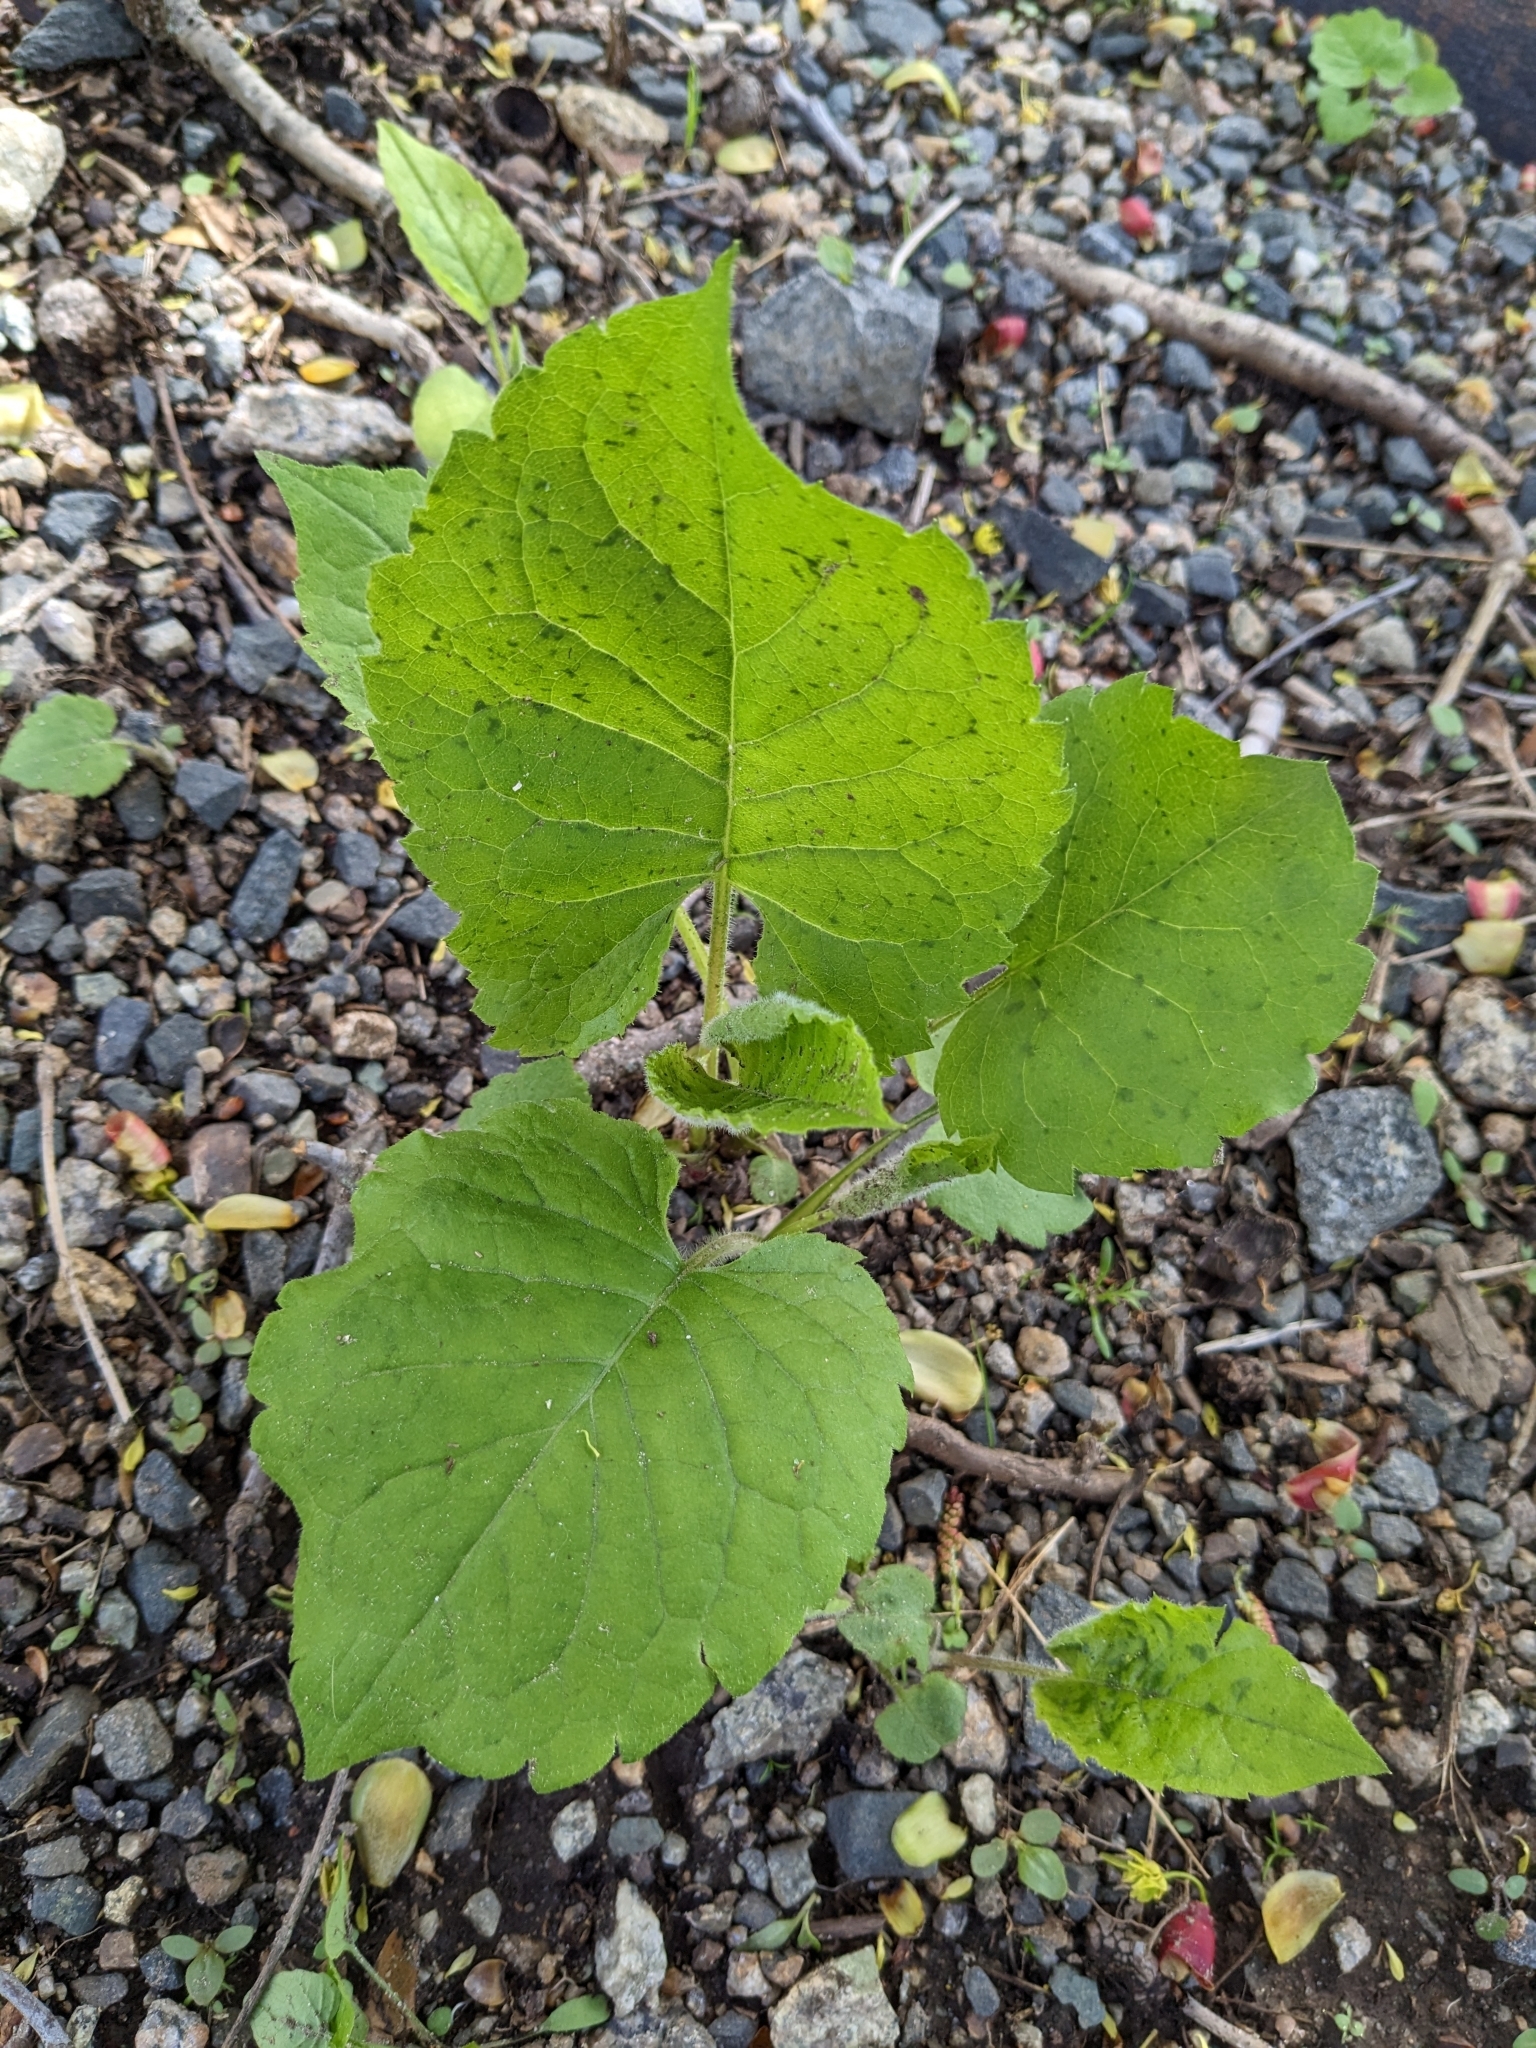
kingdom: Plantae
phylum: Tracheophyta
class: Magnoliopsida
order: Asterales
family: Asteraceae
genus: Eurybia
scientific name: Eurybia macrophylla
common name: Big-leaved aster
